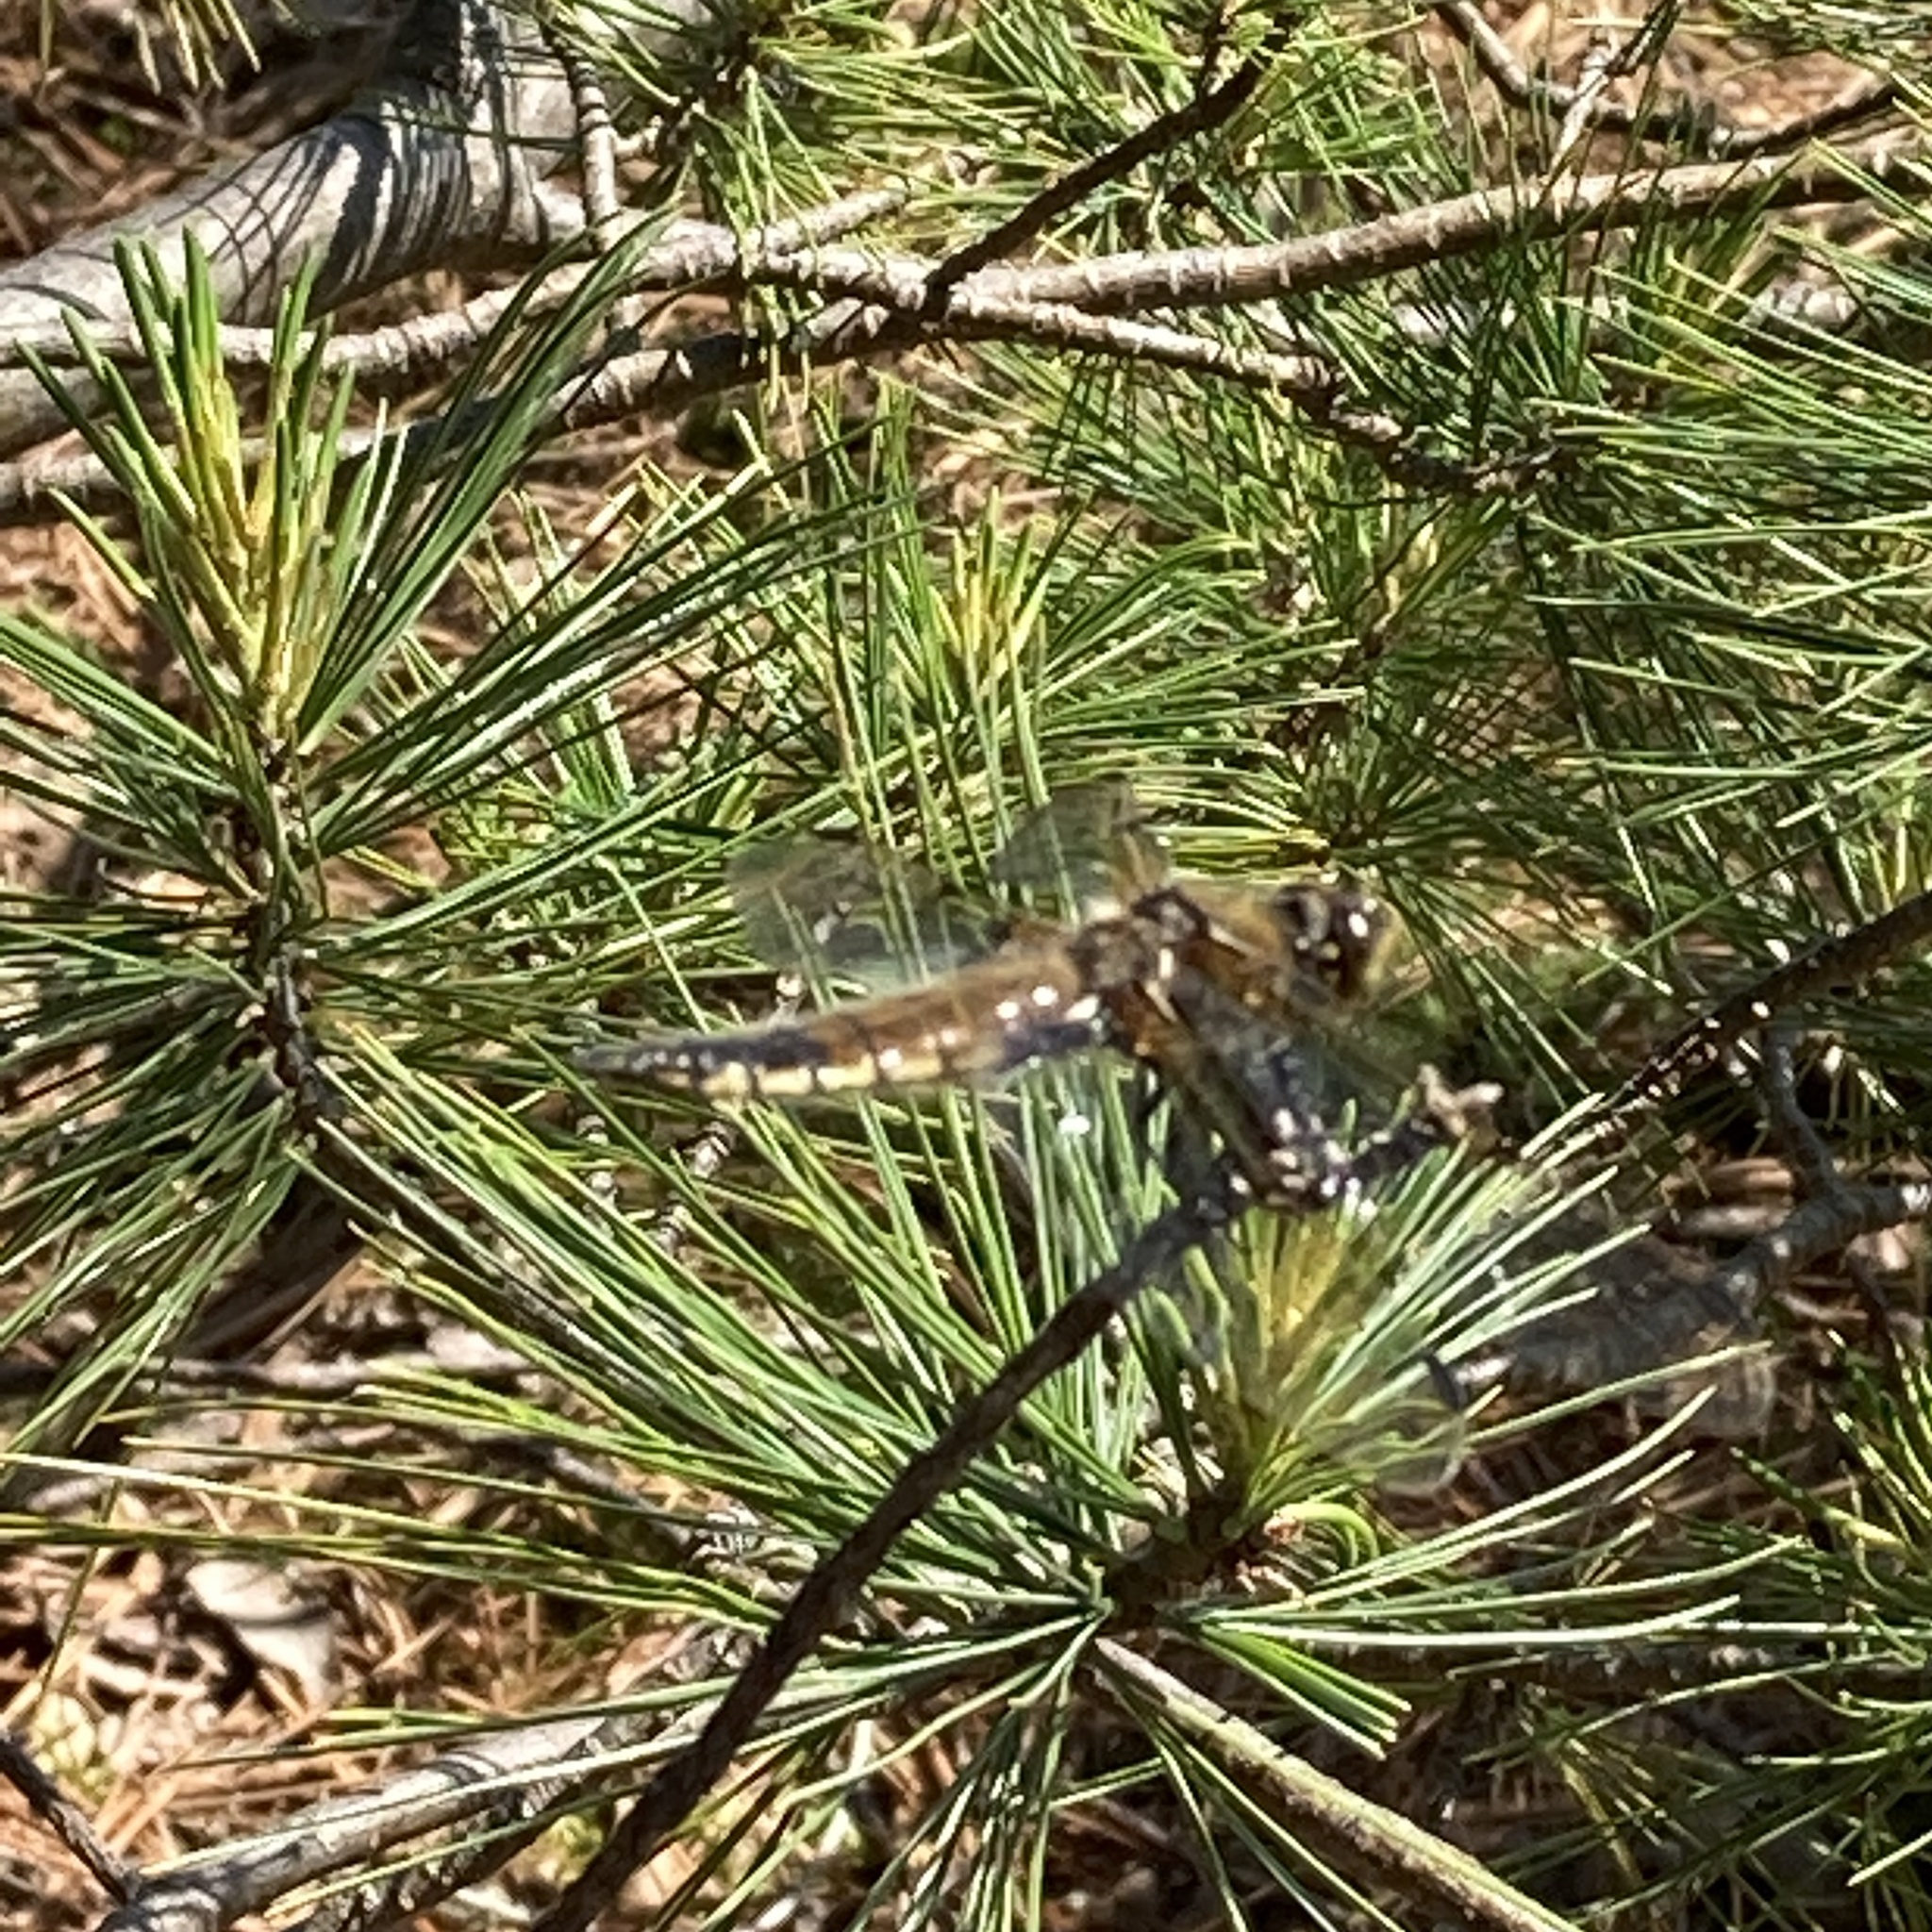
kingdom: Animalia
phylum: Arthropoda
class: Insecta
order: Odonata
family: Libellulidae
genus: Libellula
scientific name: Libellula quadrimaculata
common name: Four-spotted chaser
